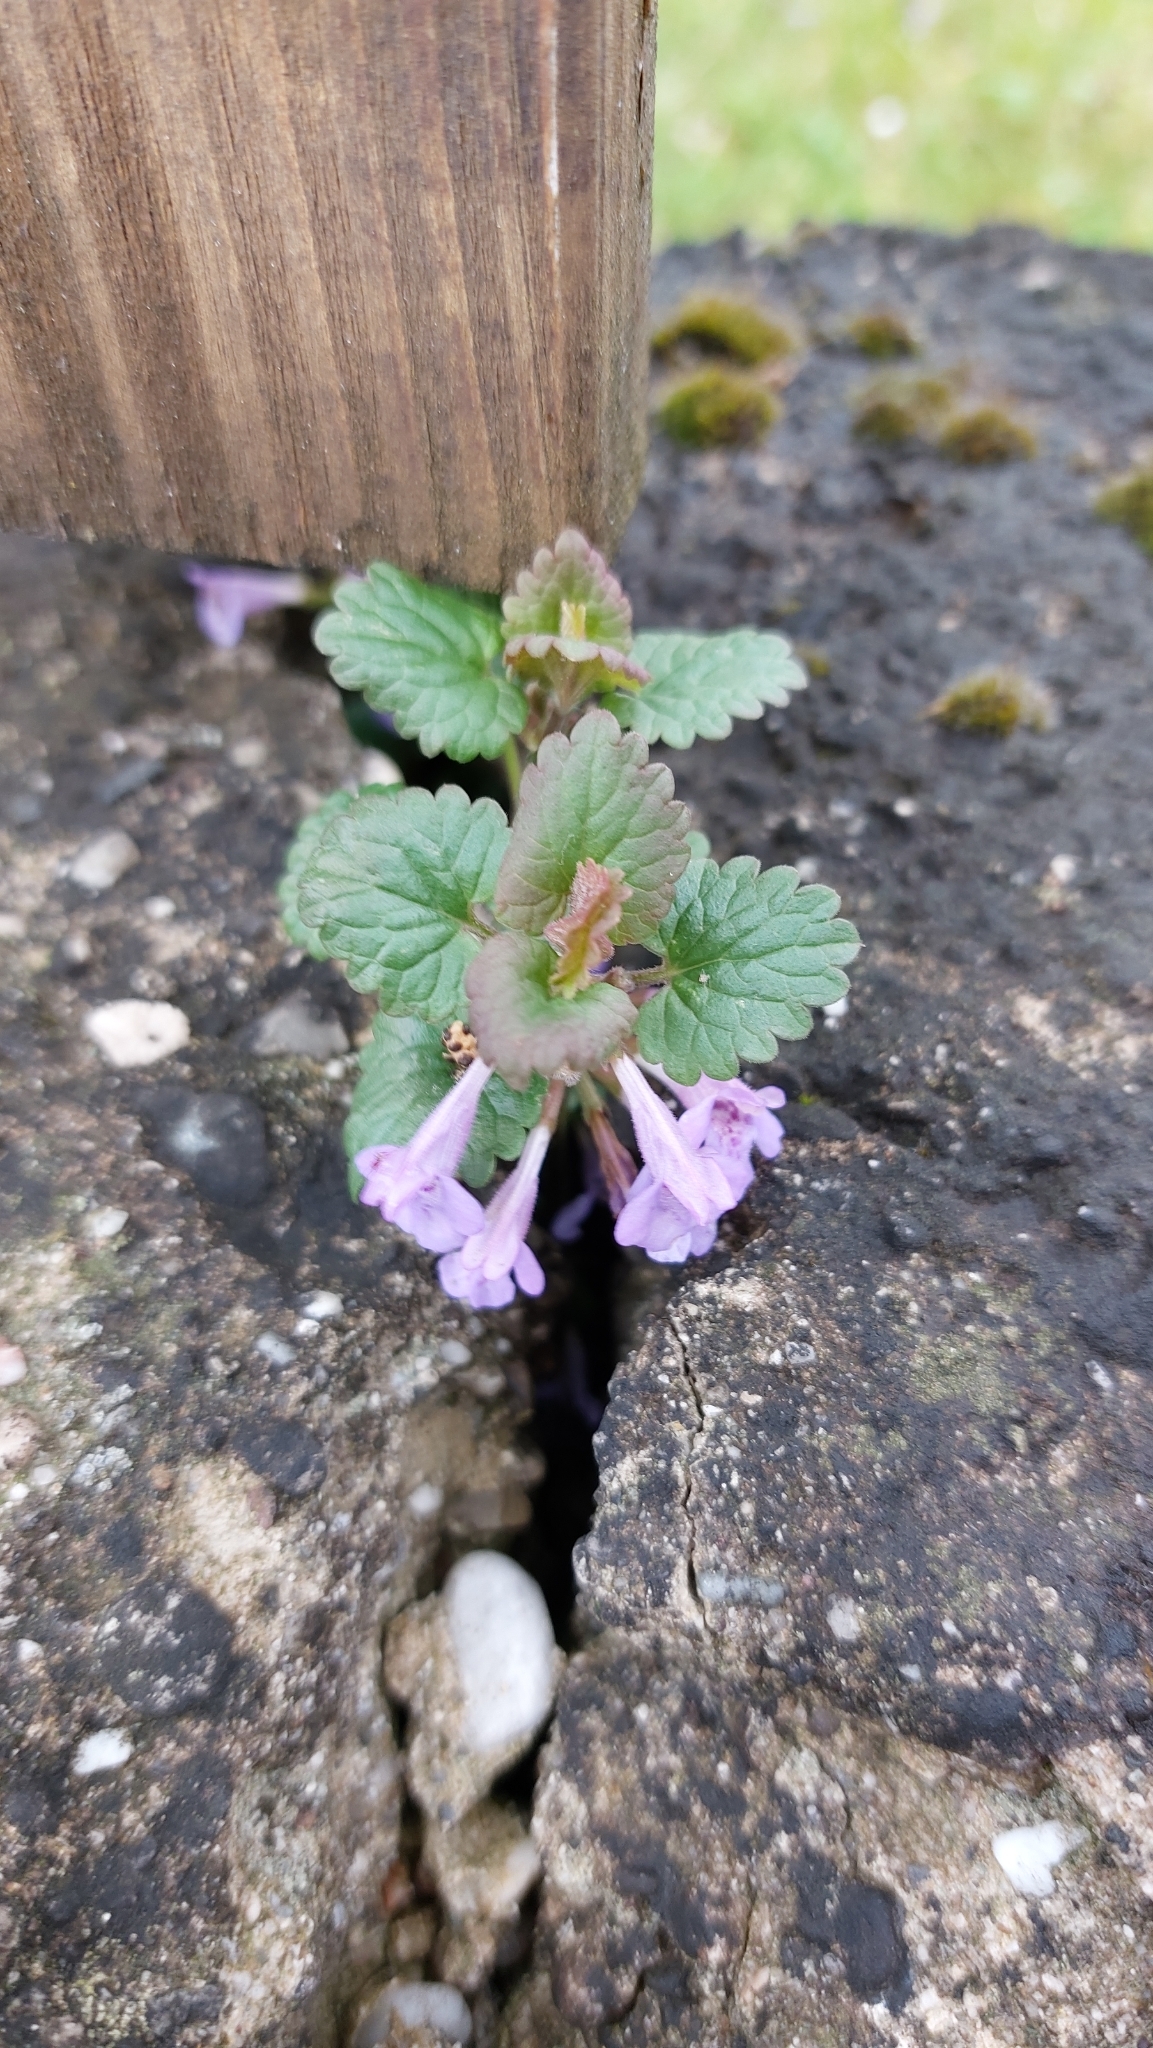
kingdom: Plantae
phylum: Tracheophyta
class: Magnoliopsida
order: Lamiales
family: Lamiaceae
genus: Glechoma
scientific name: Glechoma hederacea
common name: Ground ivy
